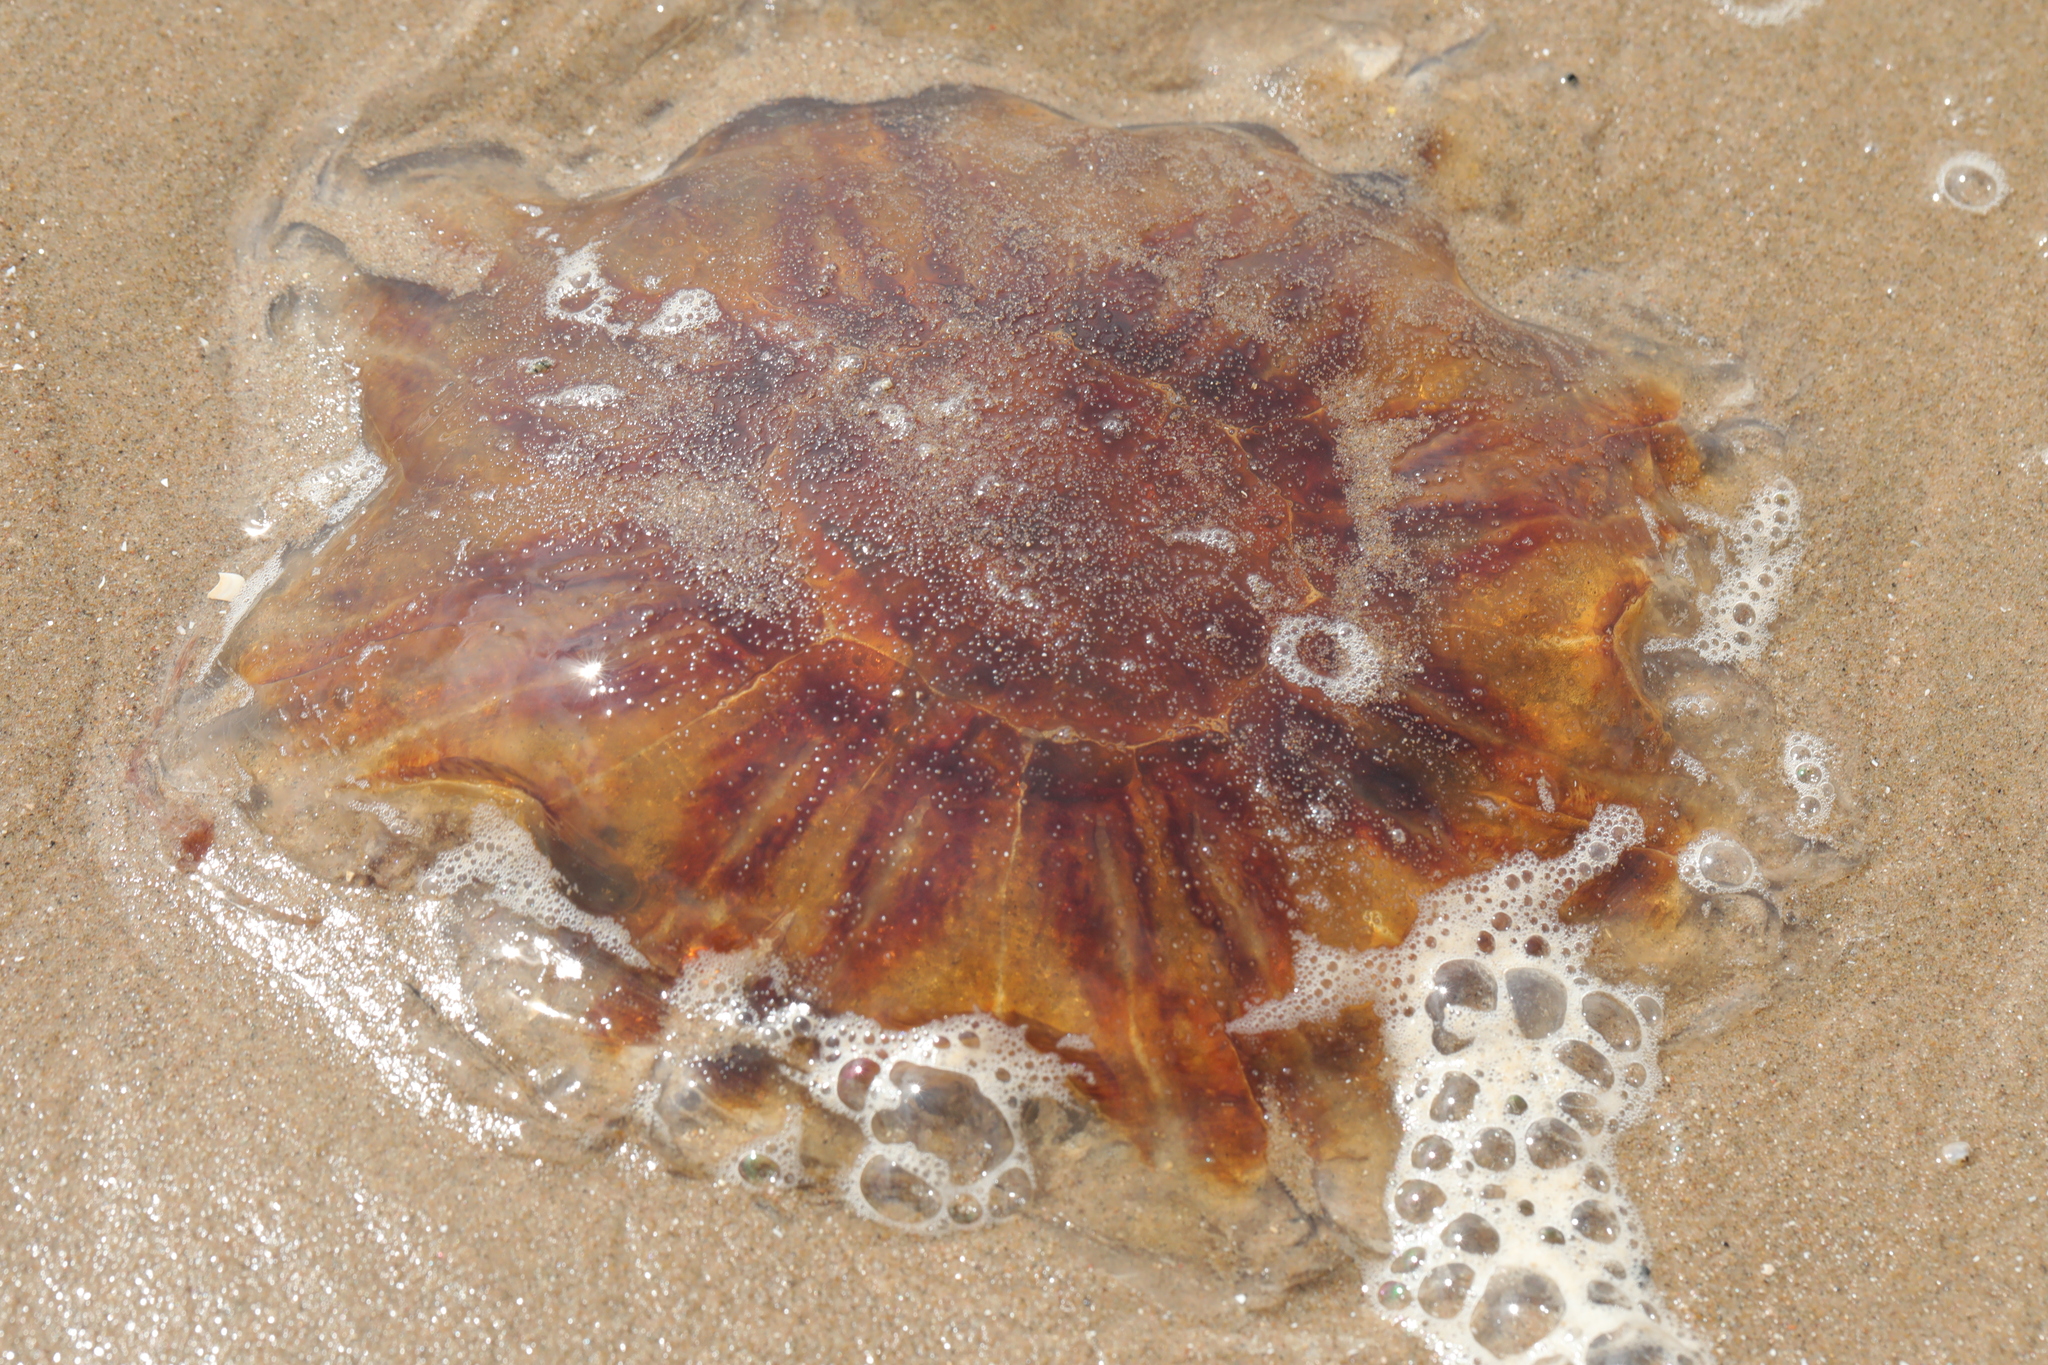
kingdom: Animalia
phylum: Cnidaria
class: Scyphozoa
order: Semaeostomeae
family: Cyaneidae
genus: Cyanea
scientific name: Cyanea capillata
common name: Lion's mane jellyfish
